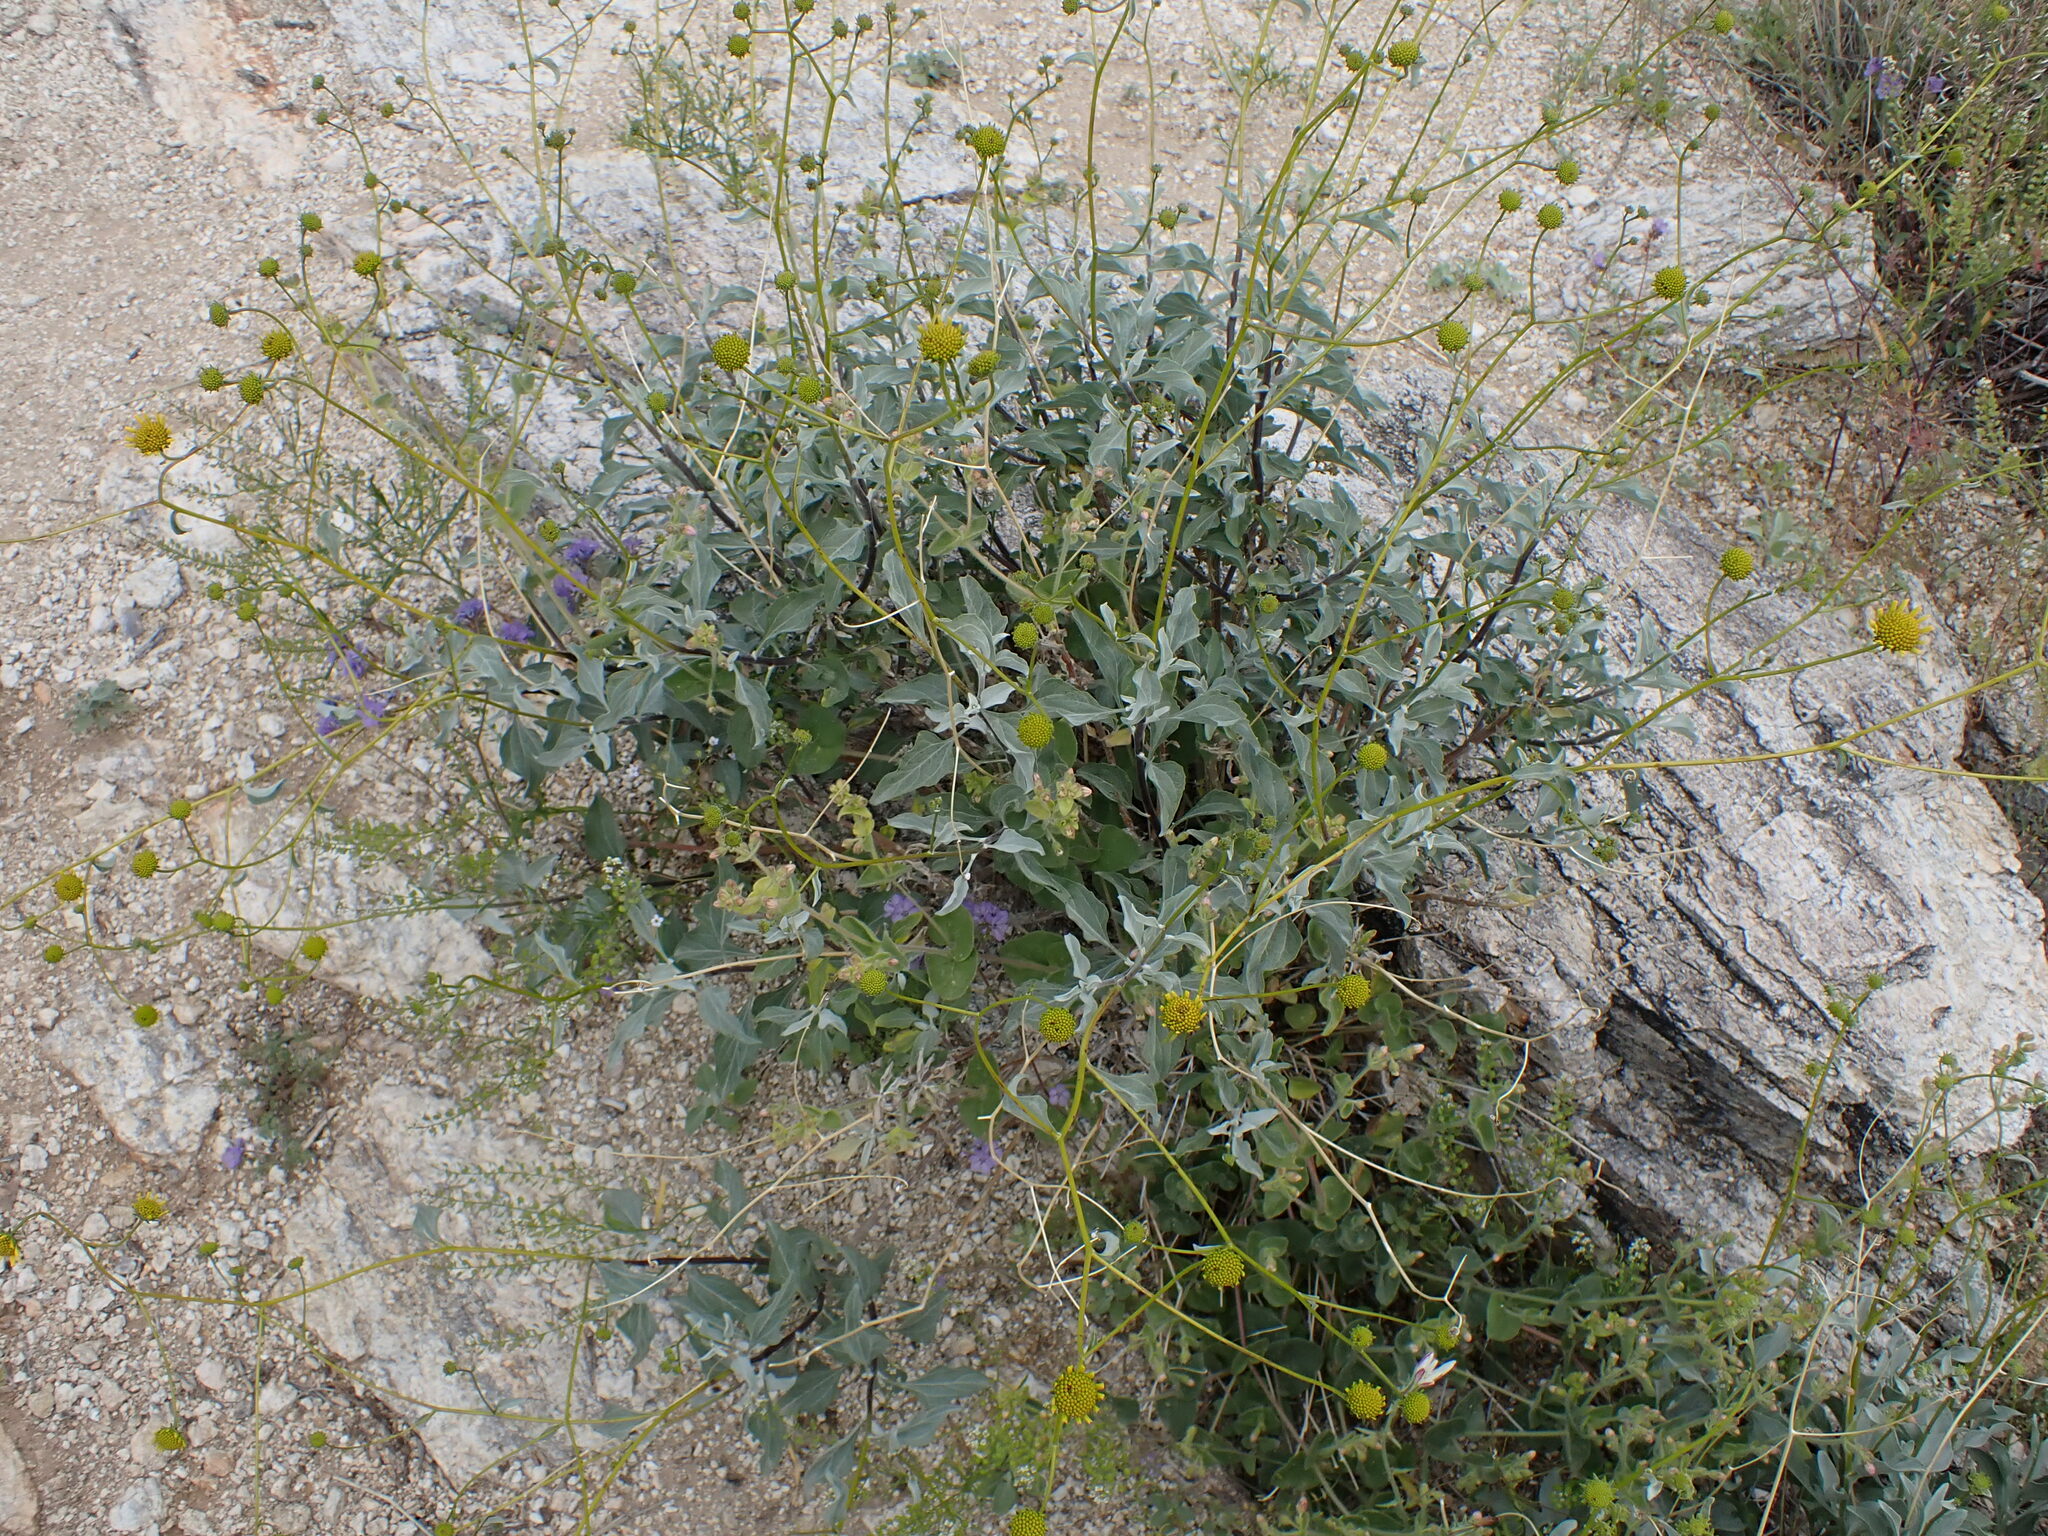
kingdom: Plantae
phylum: Tracheophyta
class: Magnoliopsida
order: Asterales
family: Asteraceae
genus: Encelia
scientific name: Encelia farinosa
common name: Brittlebush
